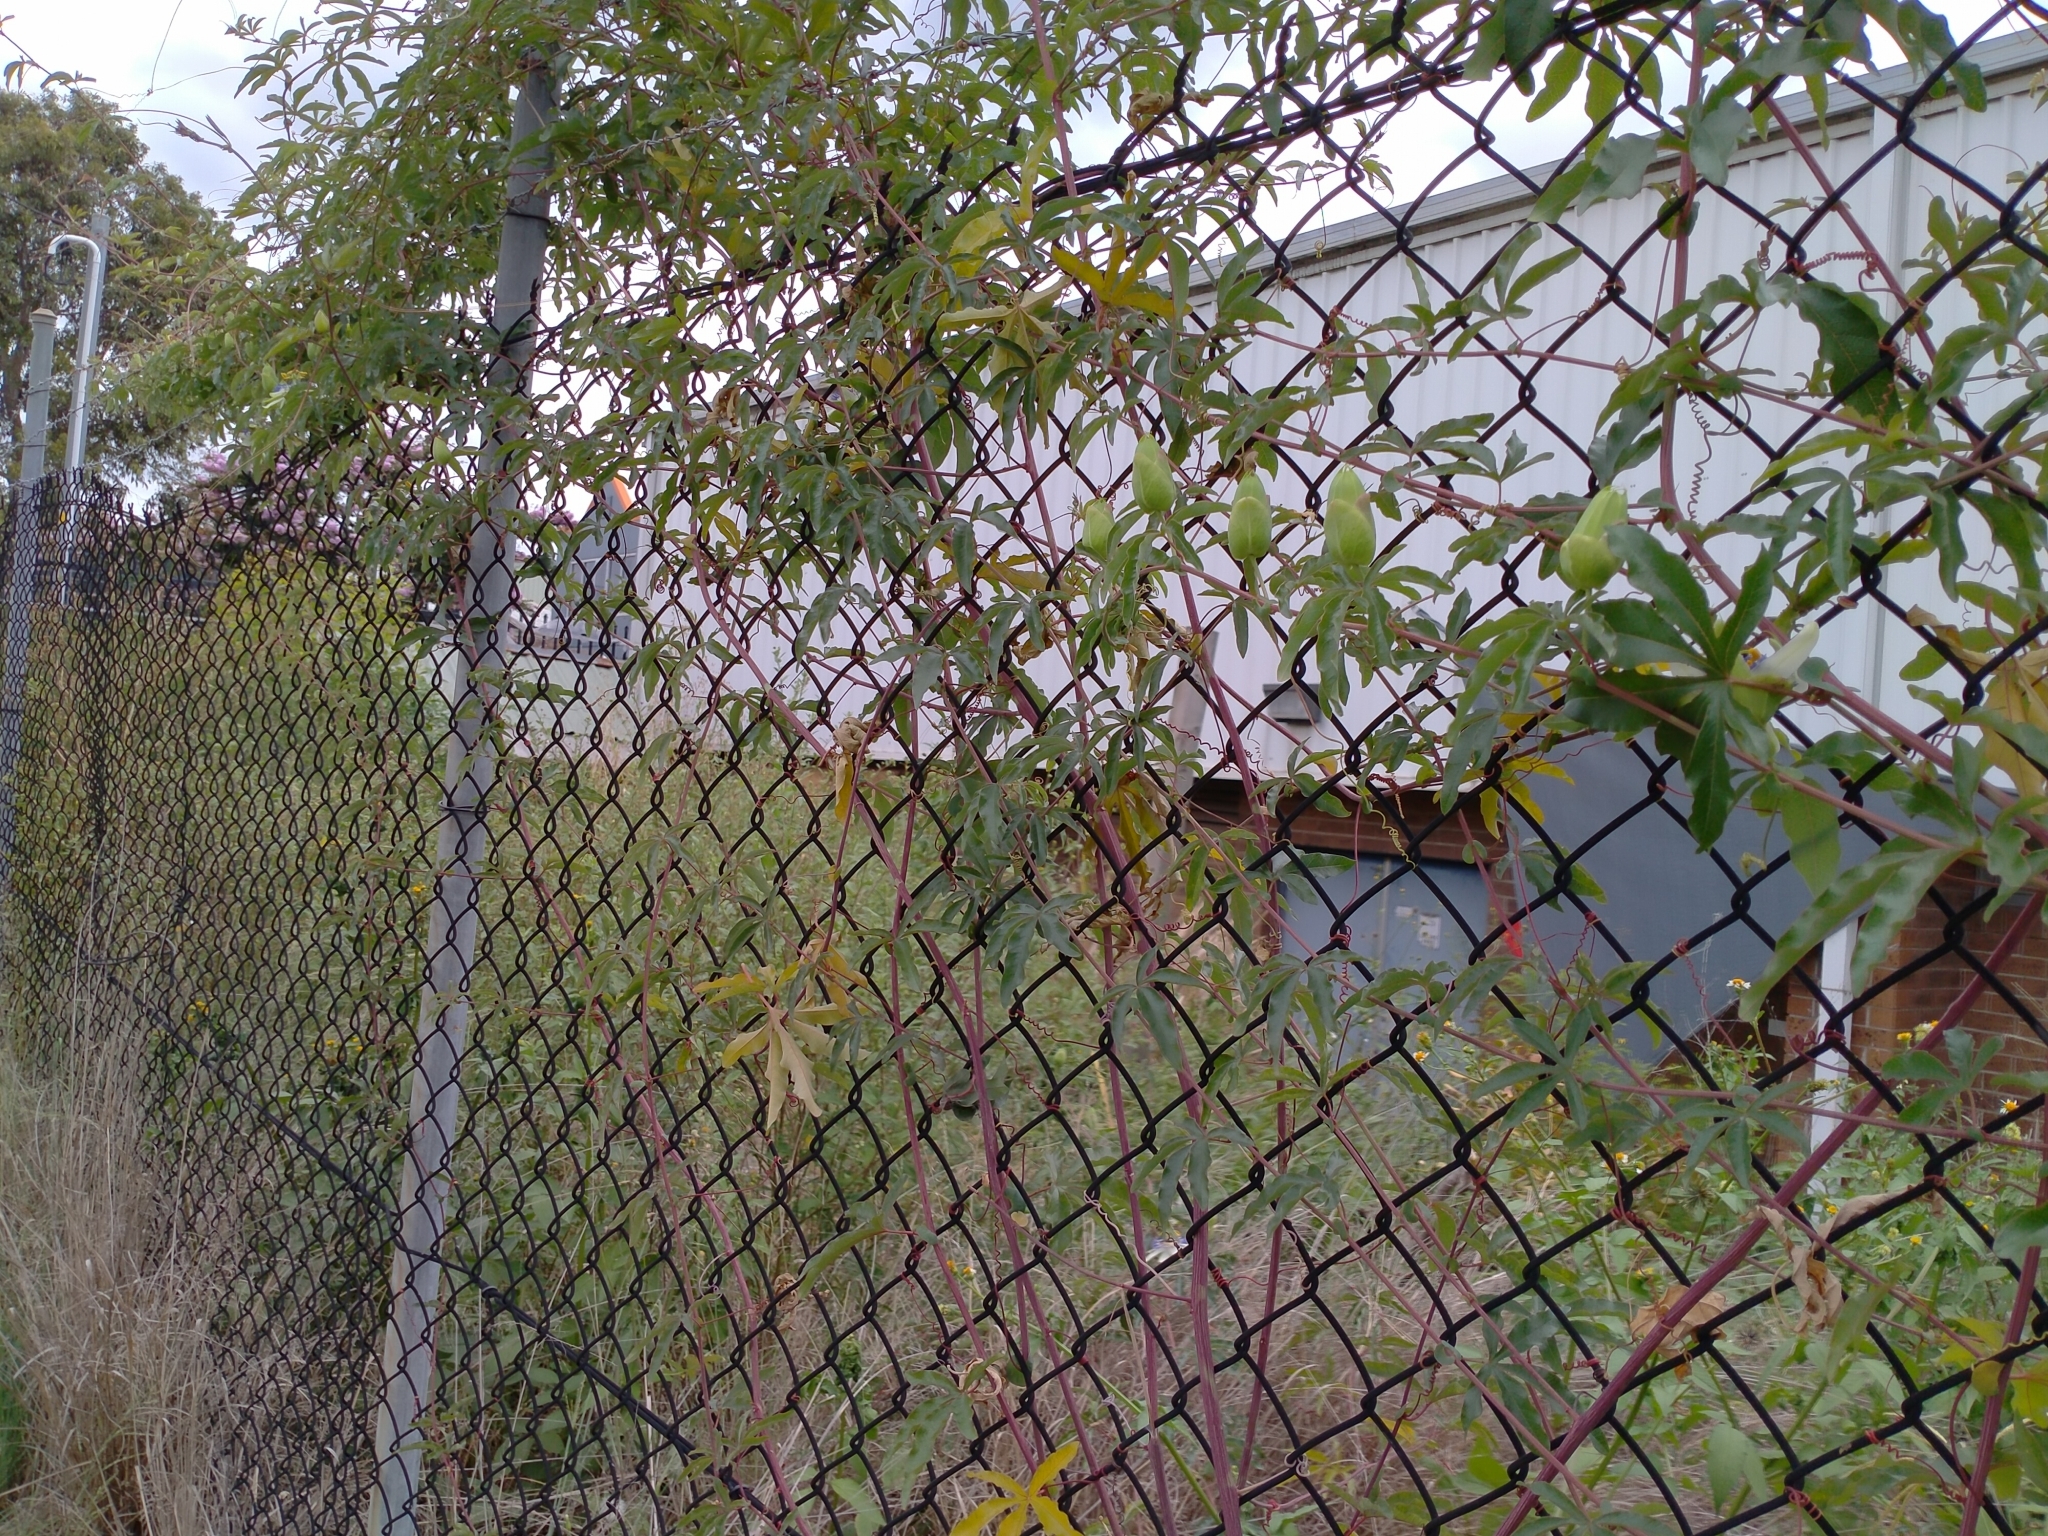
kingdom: Plantae
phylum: Tracheophyta
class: Magnoliopsida
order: Malpighiales
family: Passifloraceae
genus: Passiflora
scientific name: Passiflora caerulea
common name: Blue passionflower
